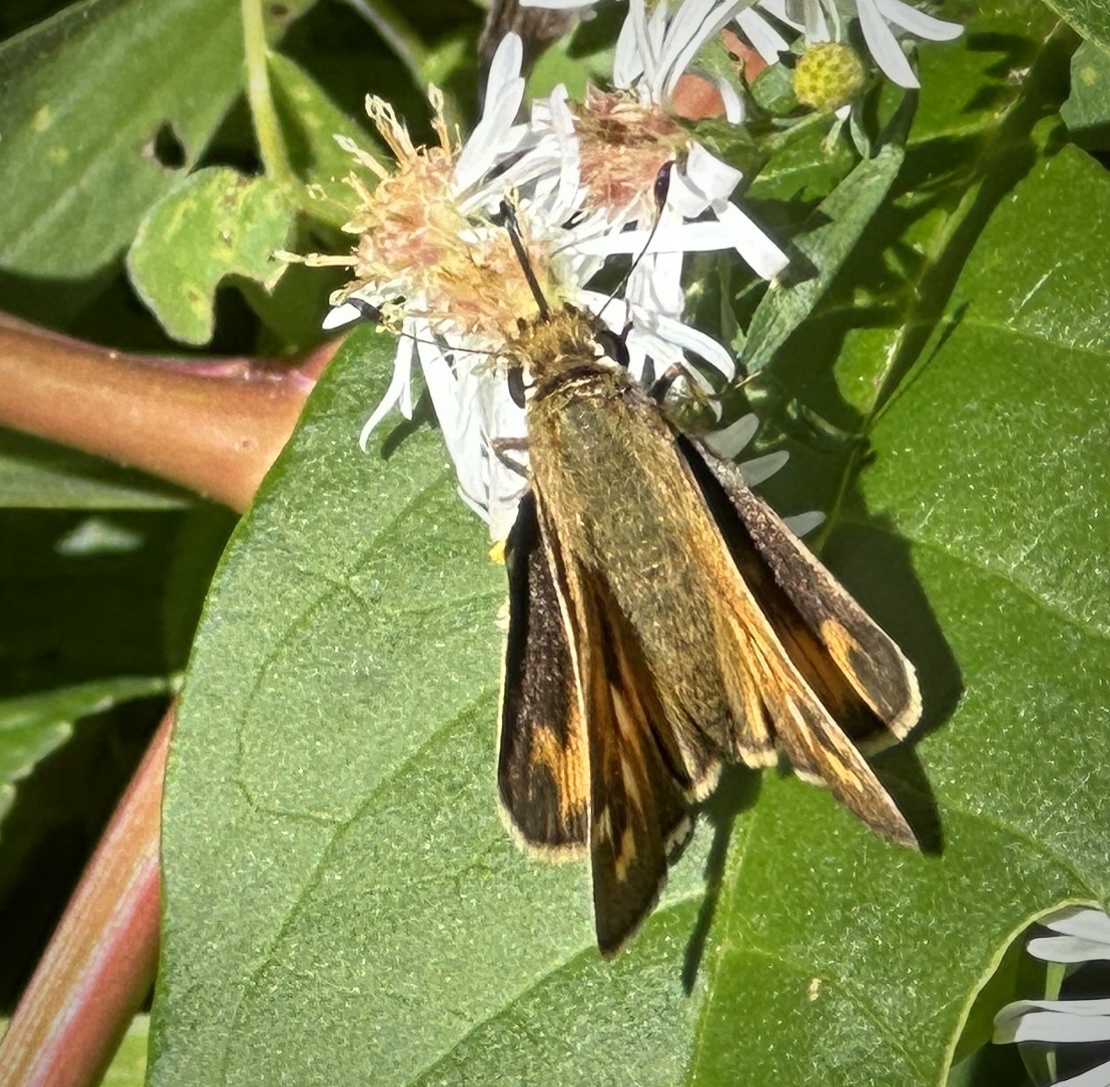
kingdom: Animalia
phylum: Arthropoda
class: Insecta
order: Lepidoptera
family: Hesperiidae
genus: Atalopedes
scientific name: Atalopedes
